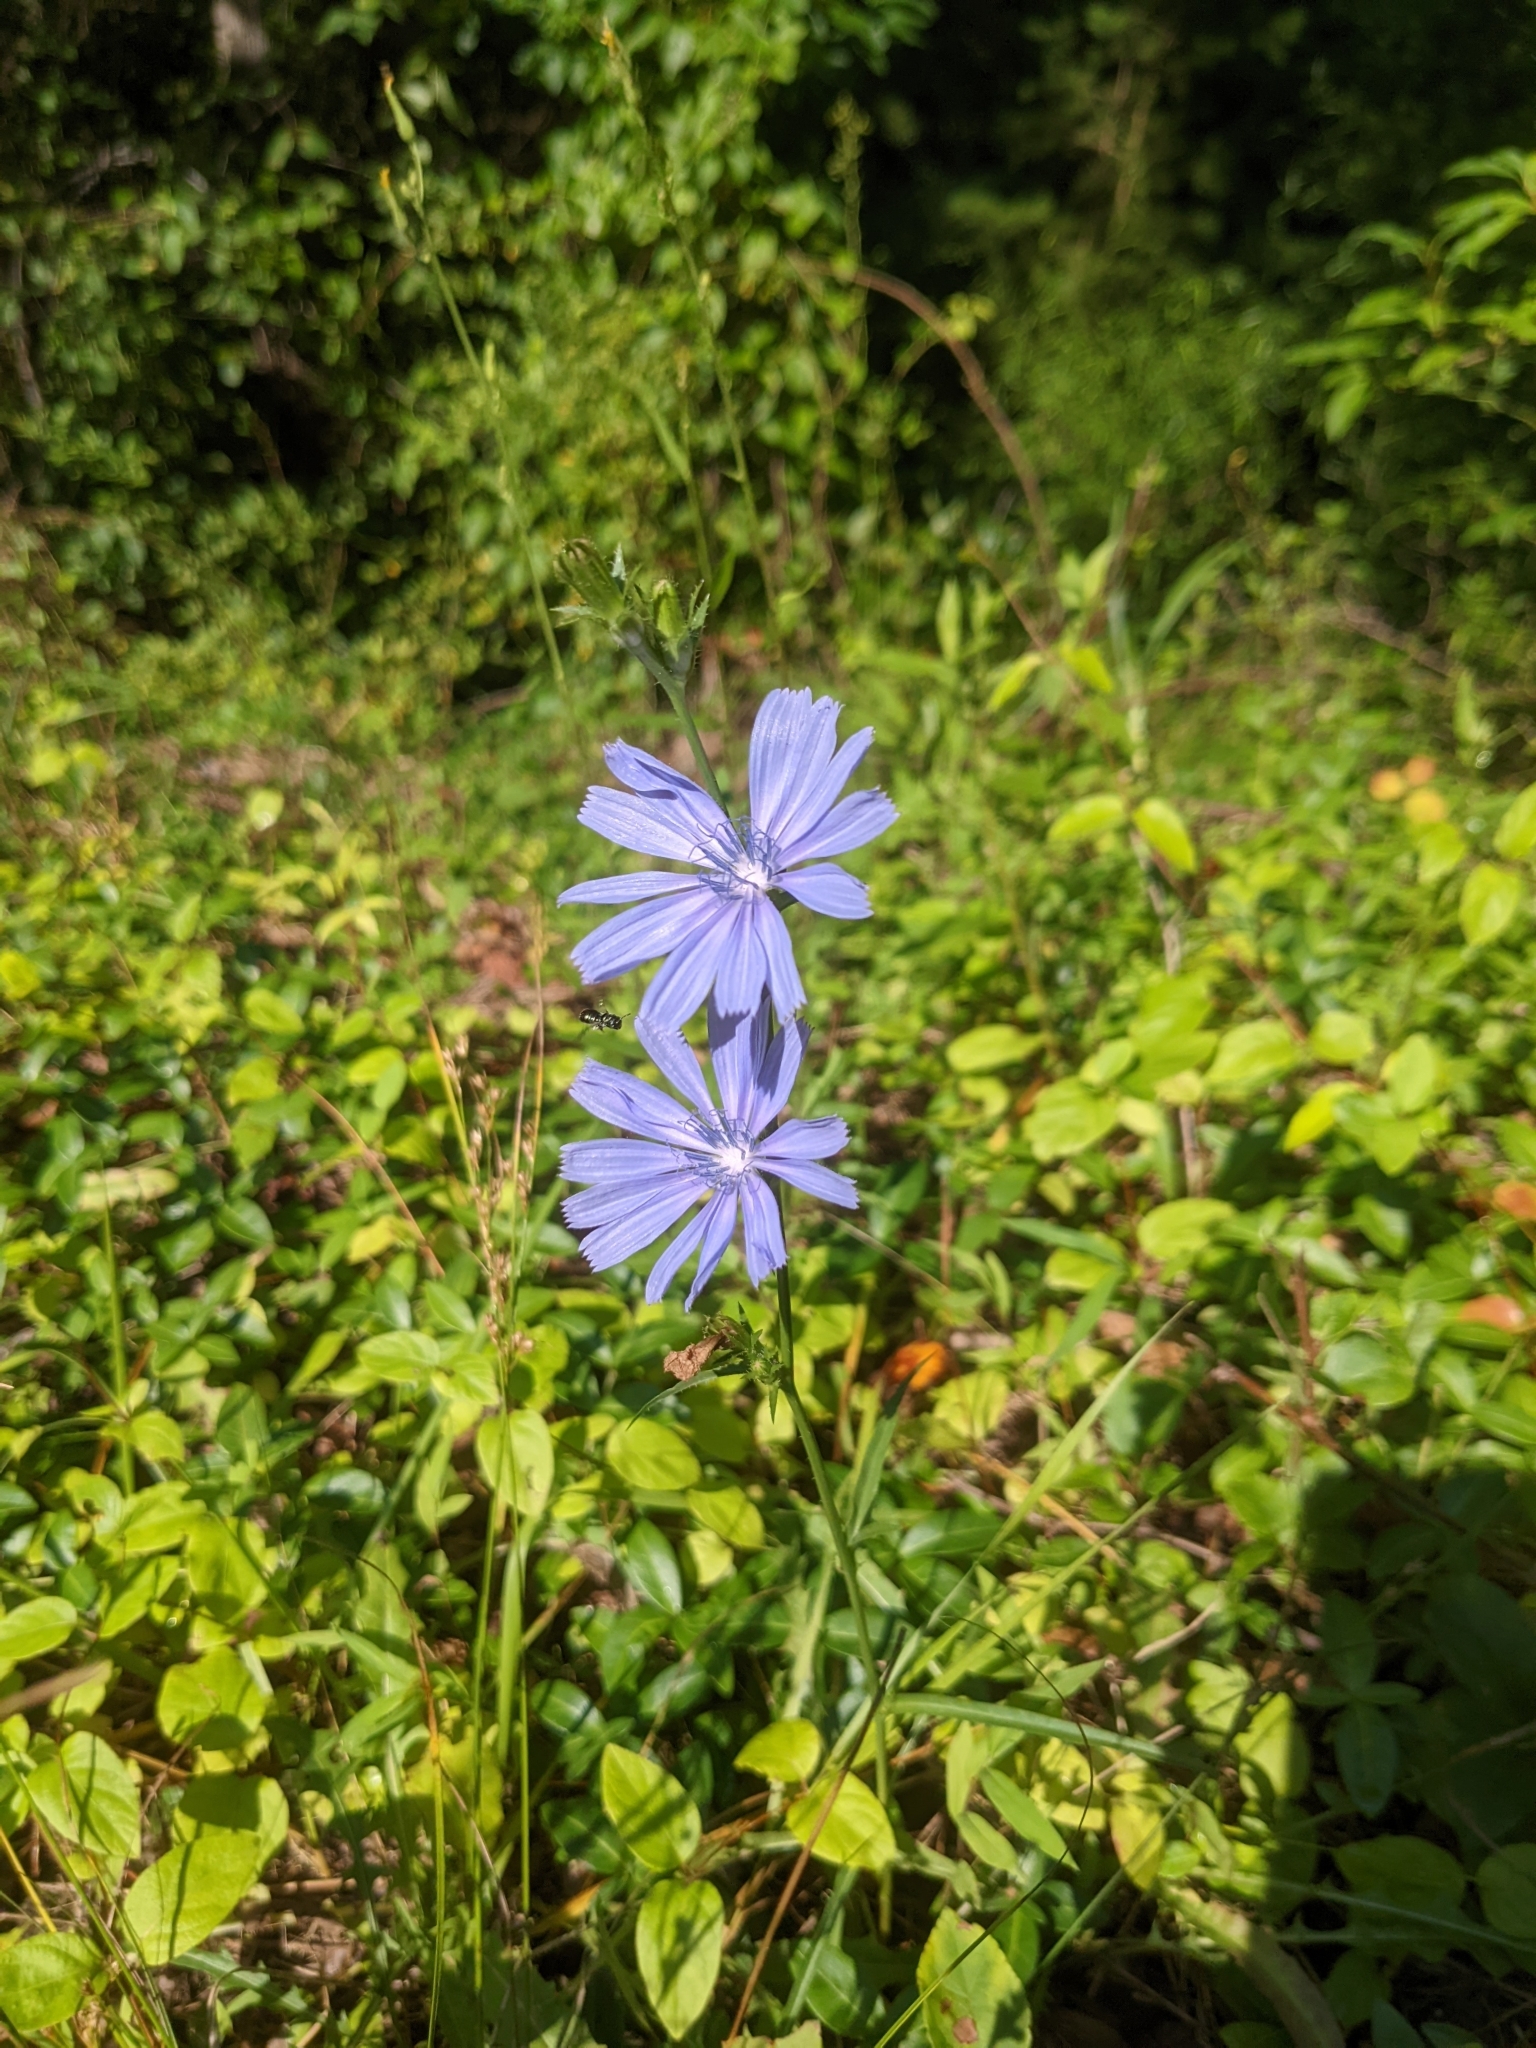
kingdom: Plantae
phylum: Tracheophyta
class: Magnoliopsida
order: Asterales
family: Asteraceae
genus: Cichorium
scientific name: Cichorium intybus
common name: Chicory
